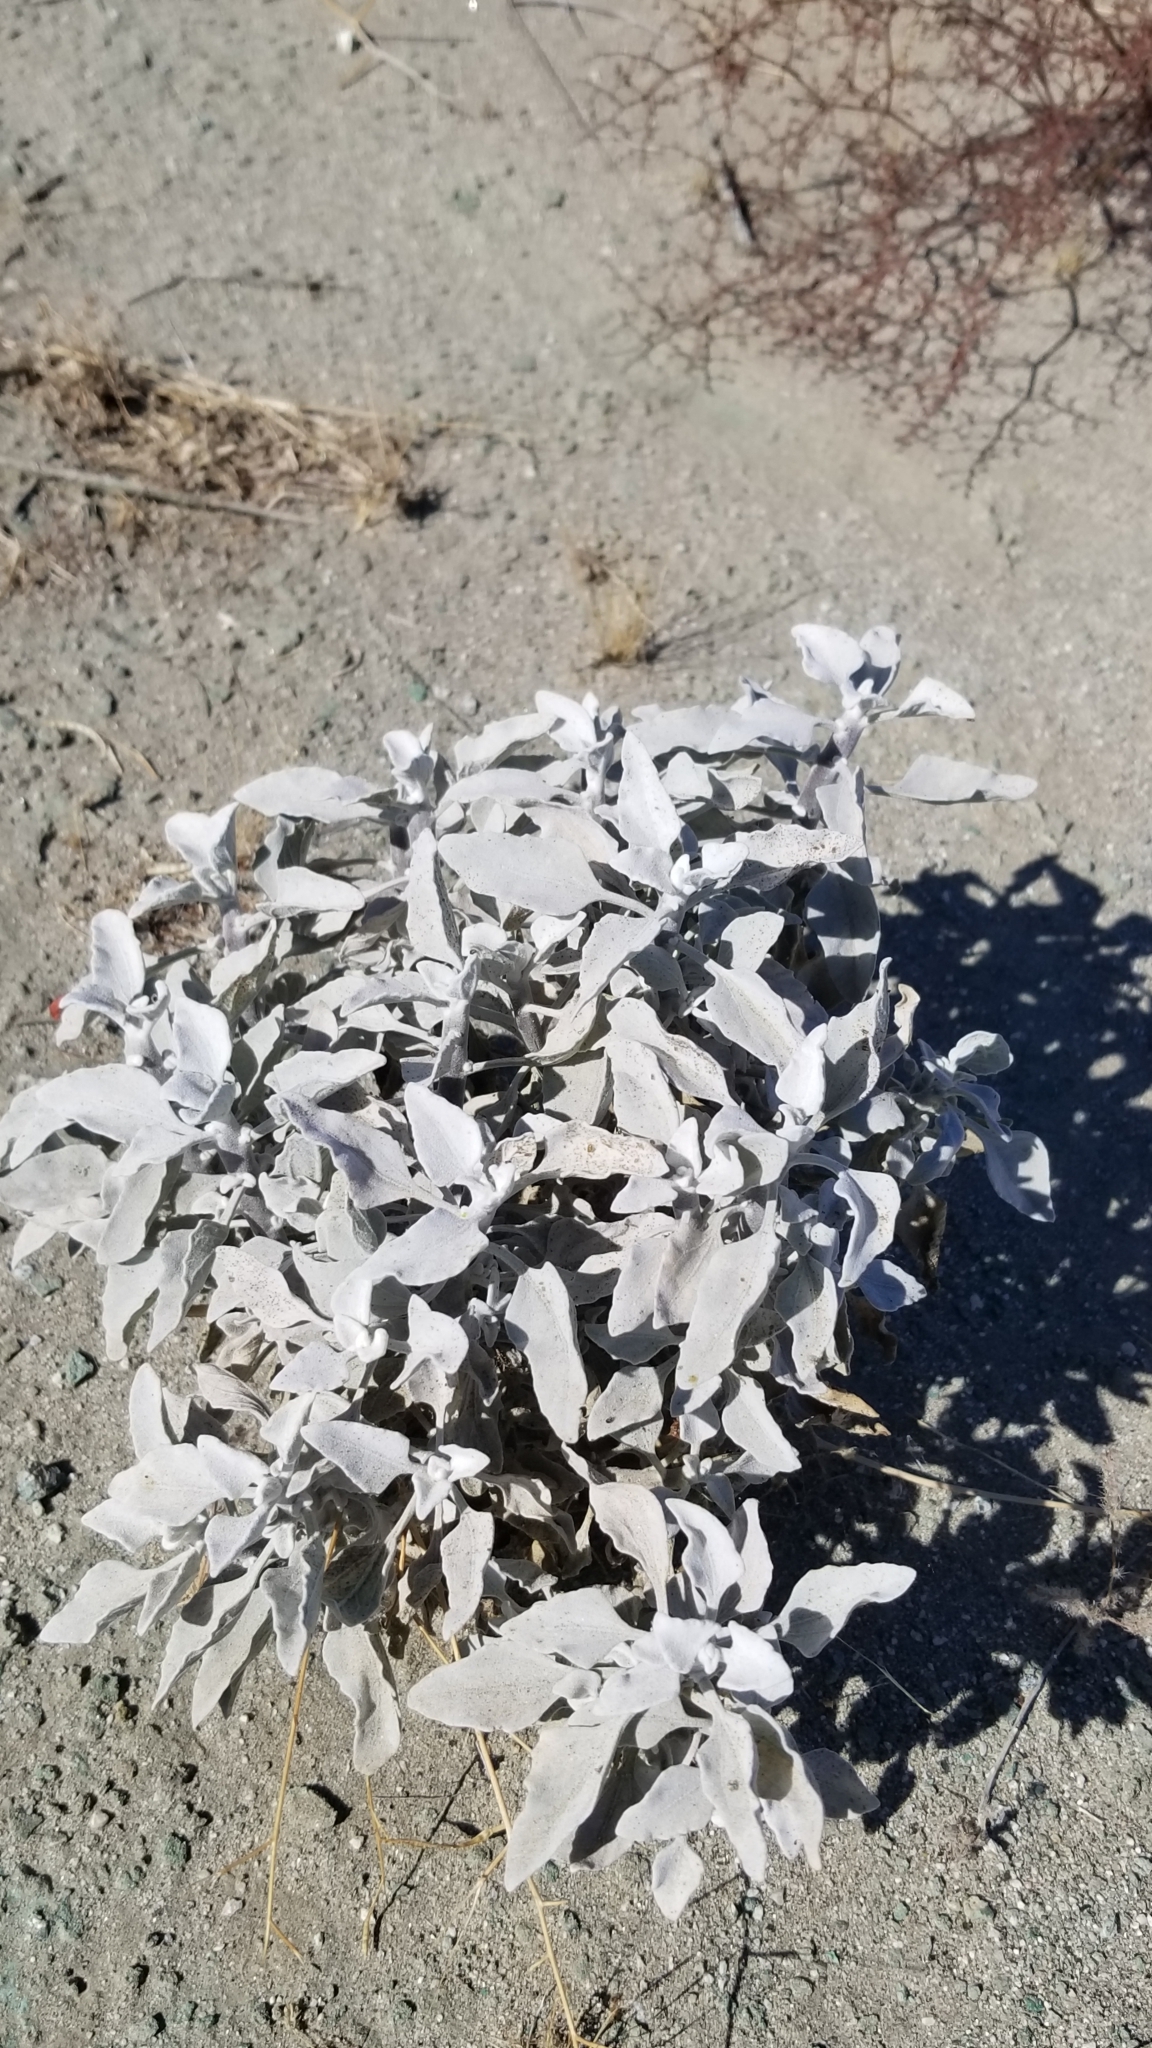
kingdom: Plantae
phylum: Tracheophyta
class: Magnoliopsida
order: Asterales
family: Asteraceae
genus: Encelia
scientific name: Encelia farinosa
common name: Brittlebush
